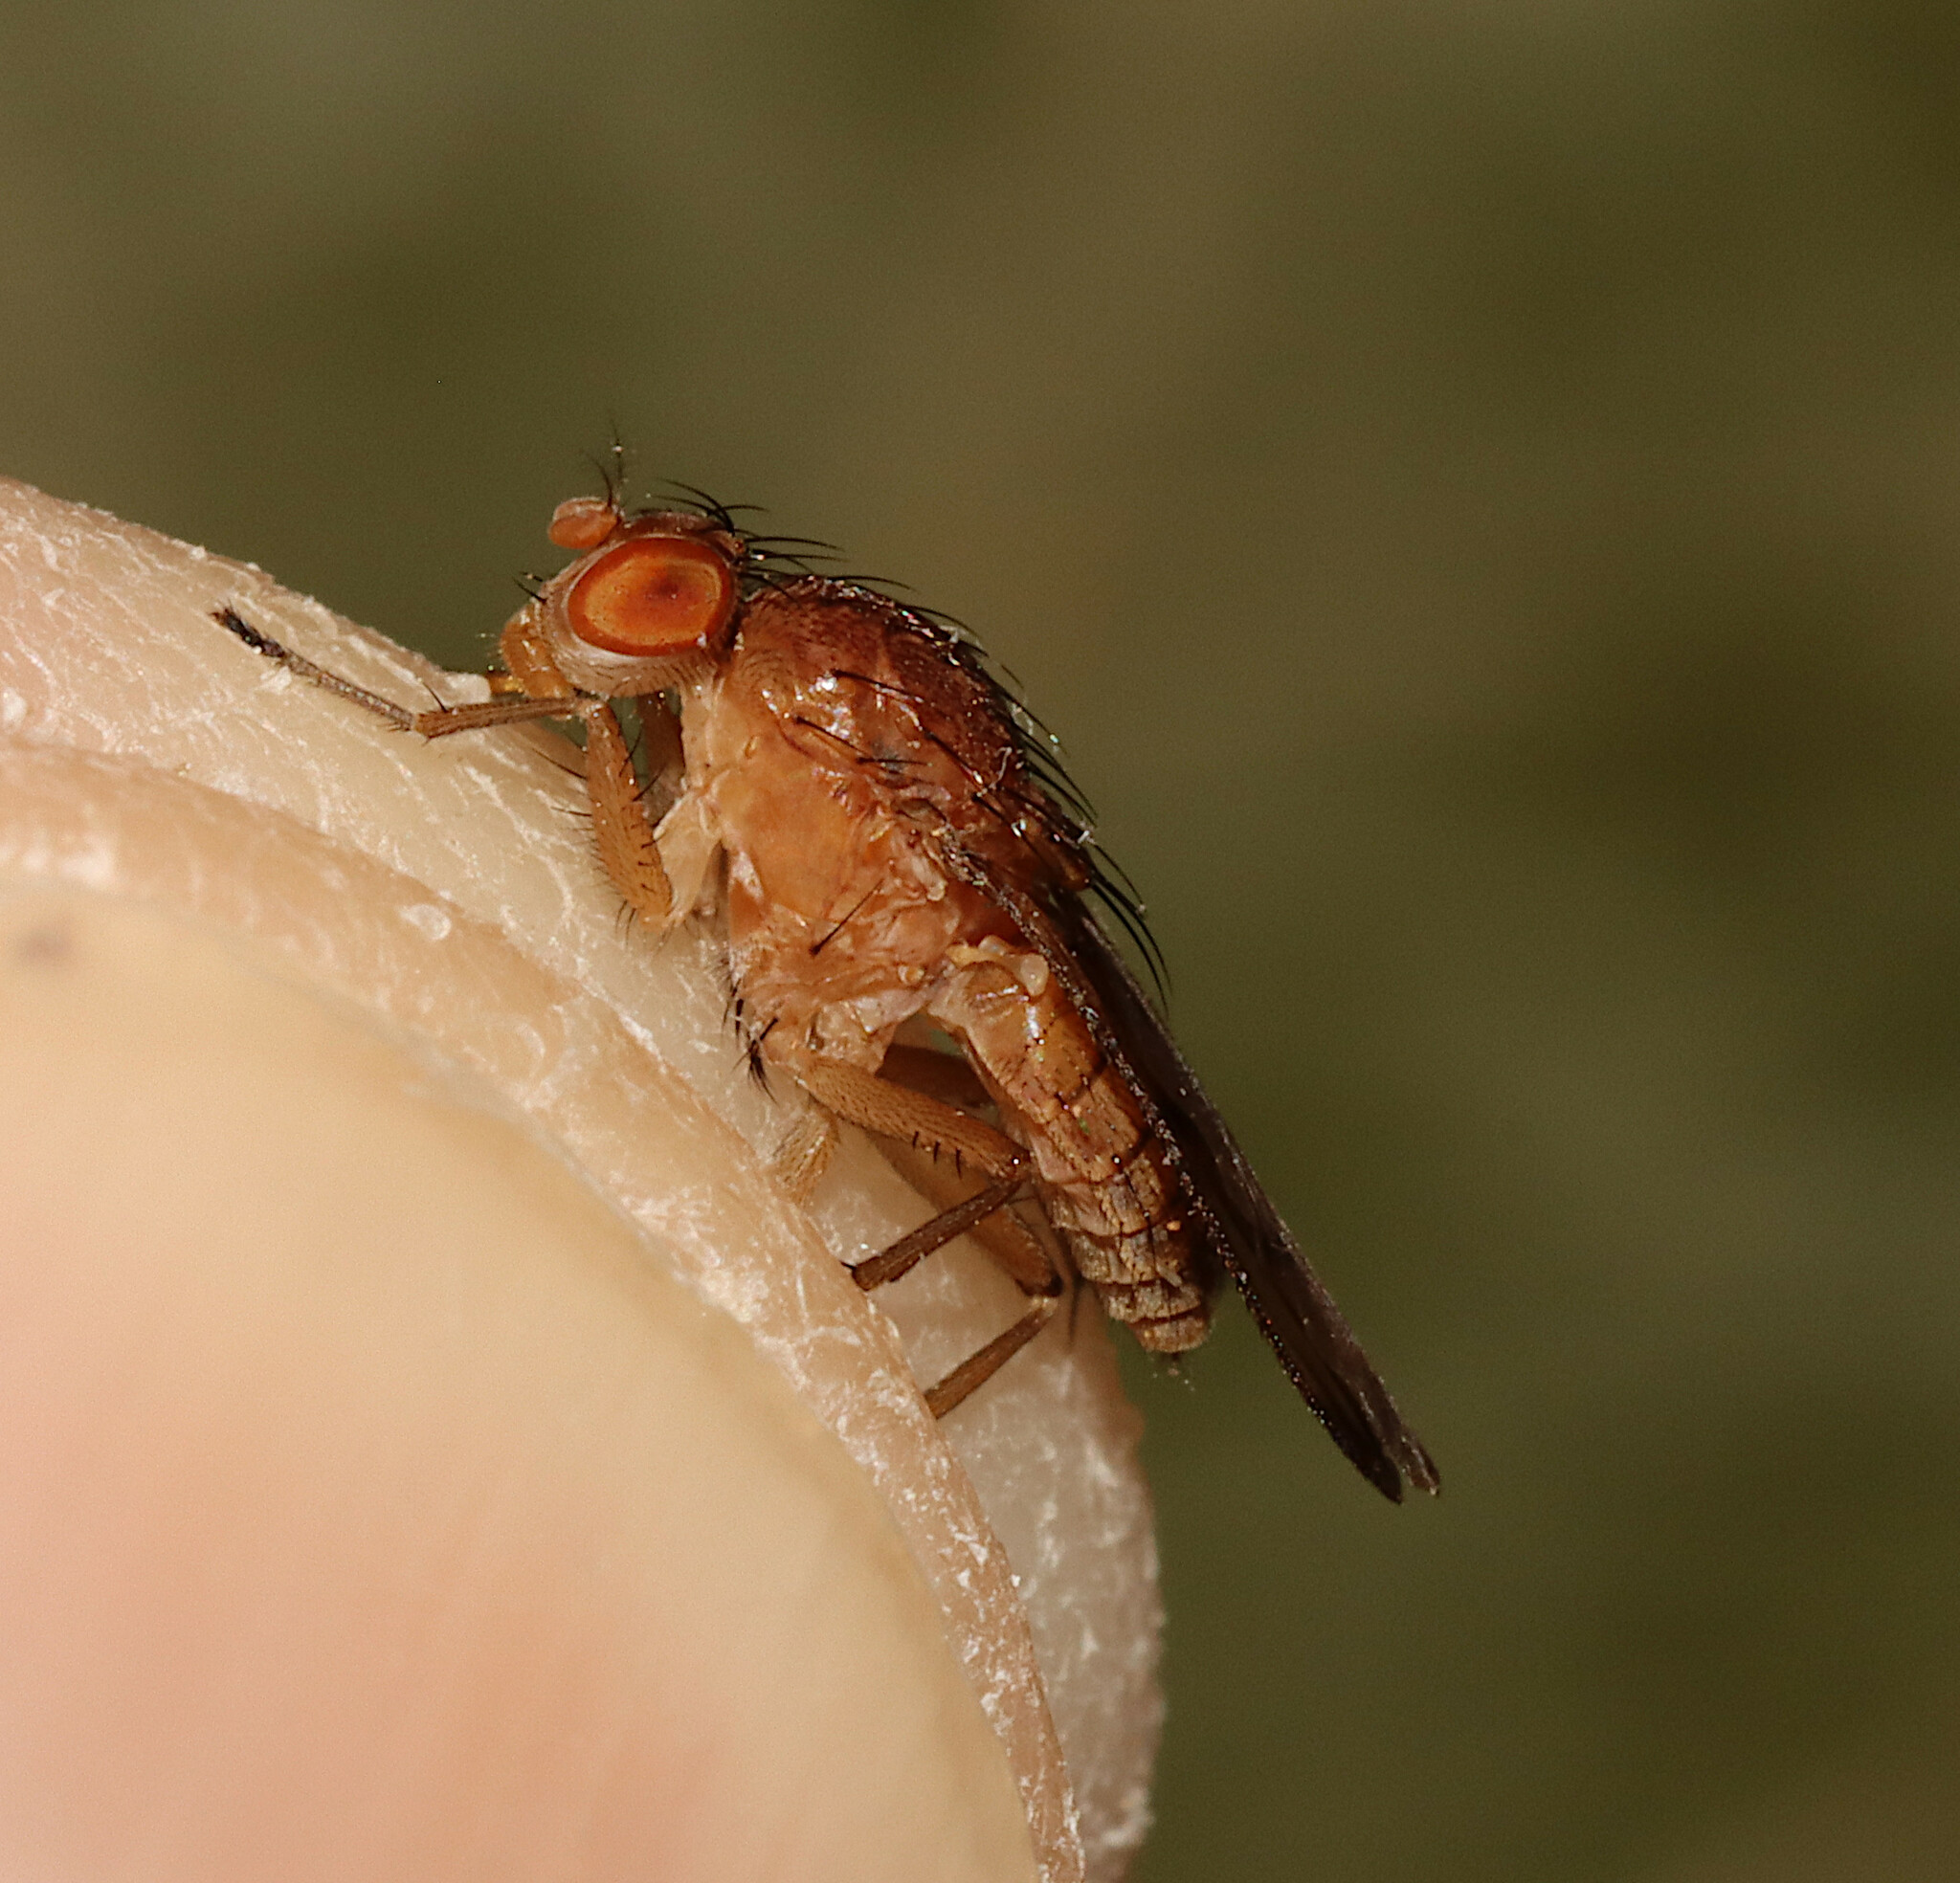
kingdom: Animalia
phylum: Arthropoda
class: Insecta
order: Diptera
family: Heleomyzidae
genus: Suillia
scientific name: Suillia quinquepunctata
